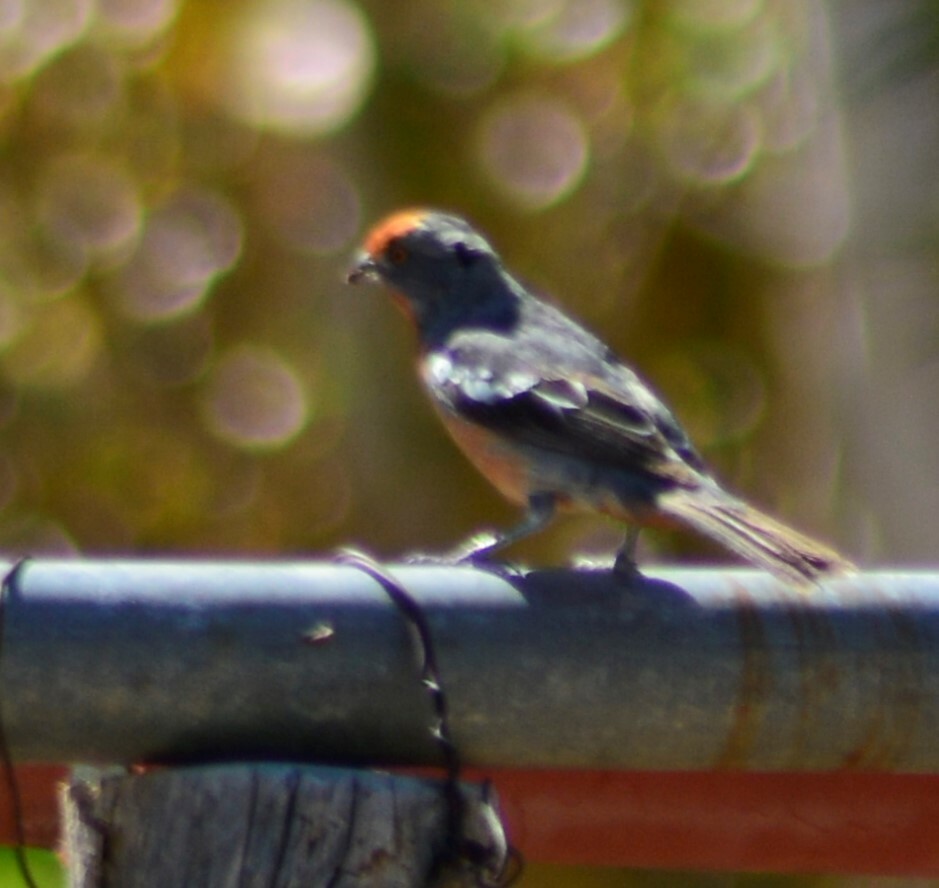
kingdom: Animalia
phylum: Chordata
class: Aves
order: Passeriformes
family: Cotingidae
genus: Phytotoma
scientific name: Phytotoma rutila
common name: White-tipped plantcutter
